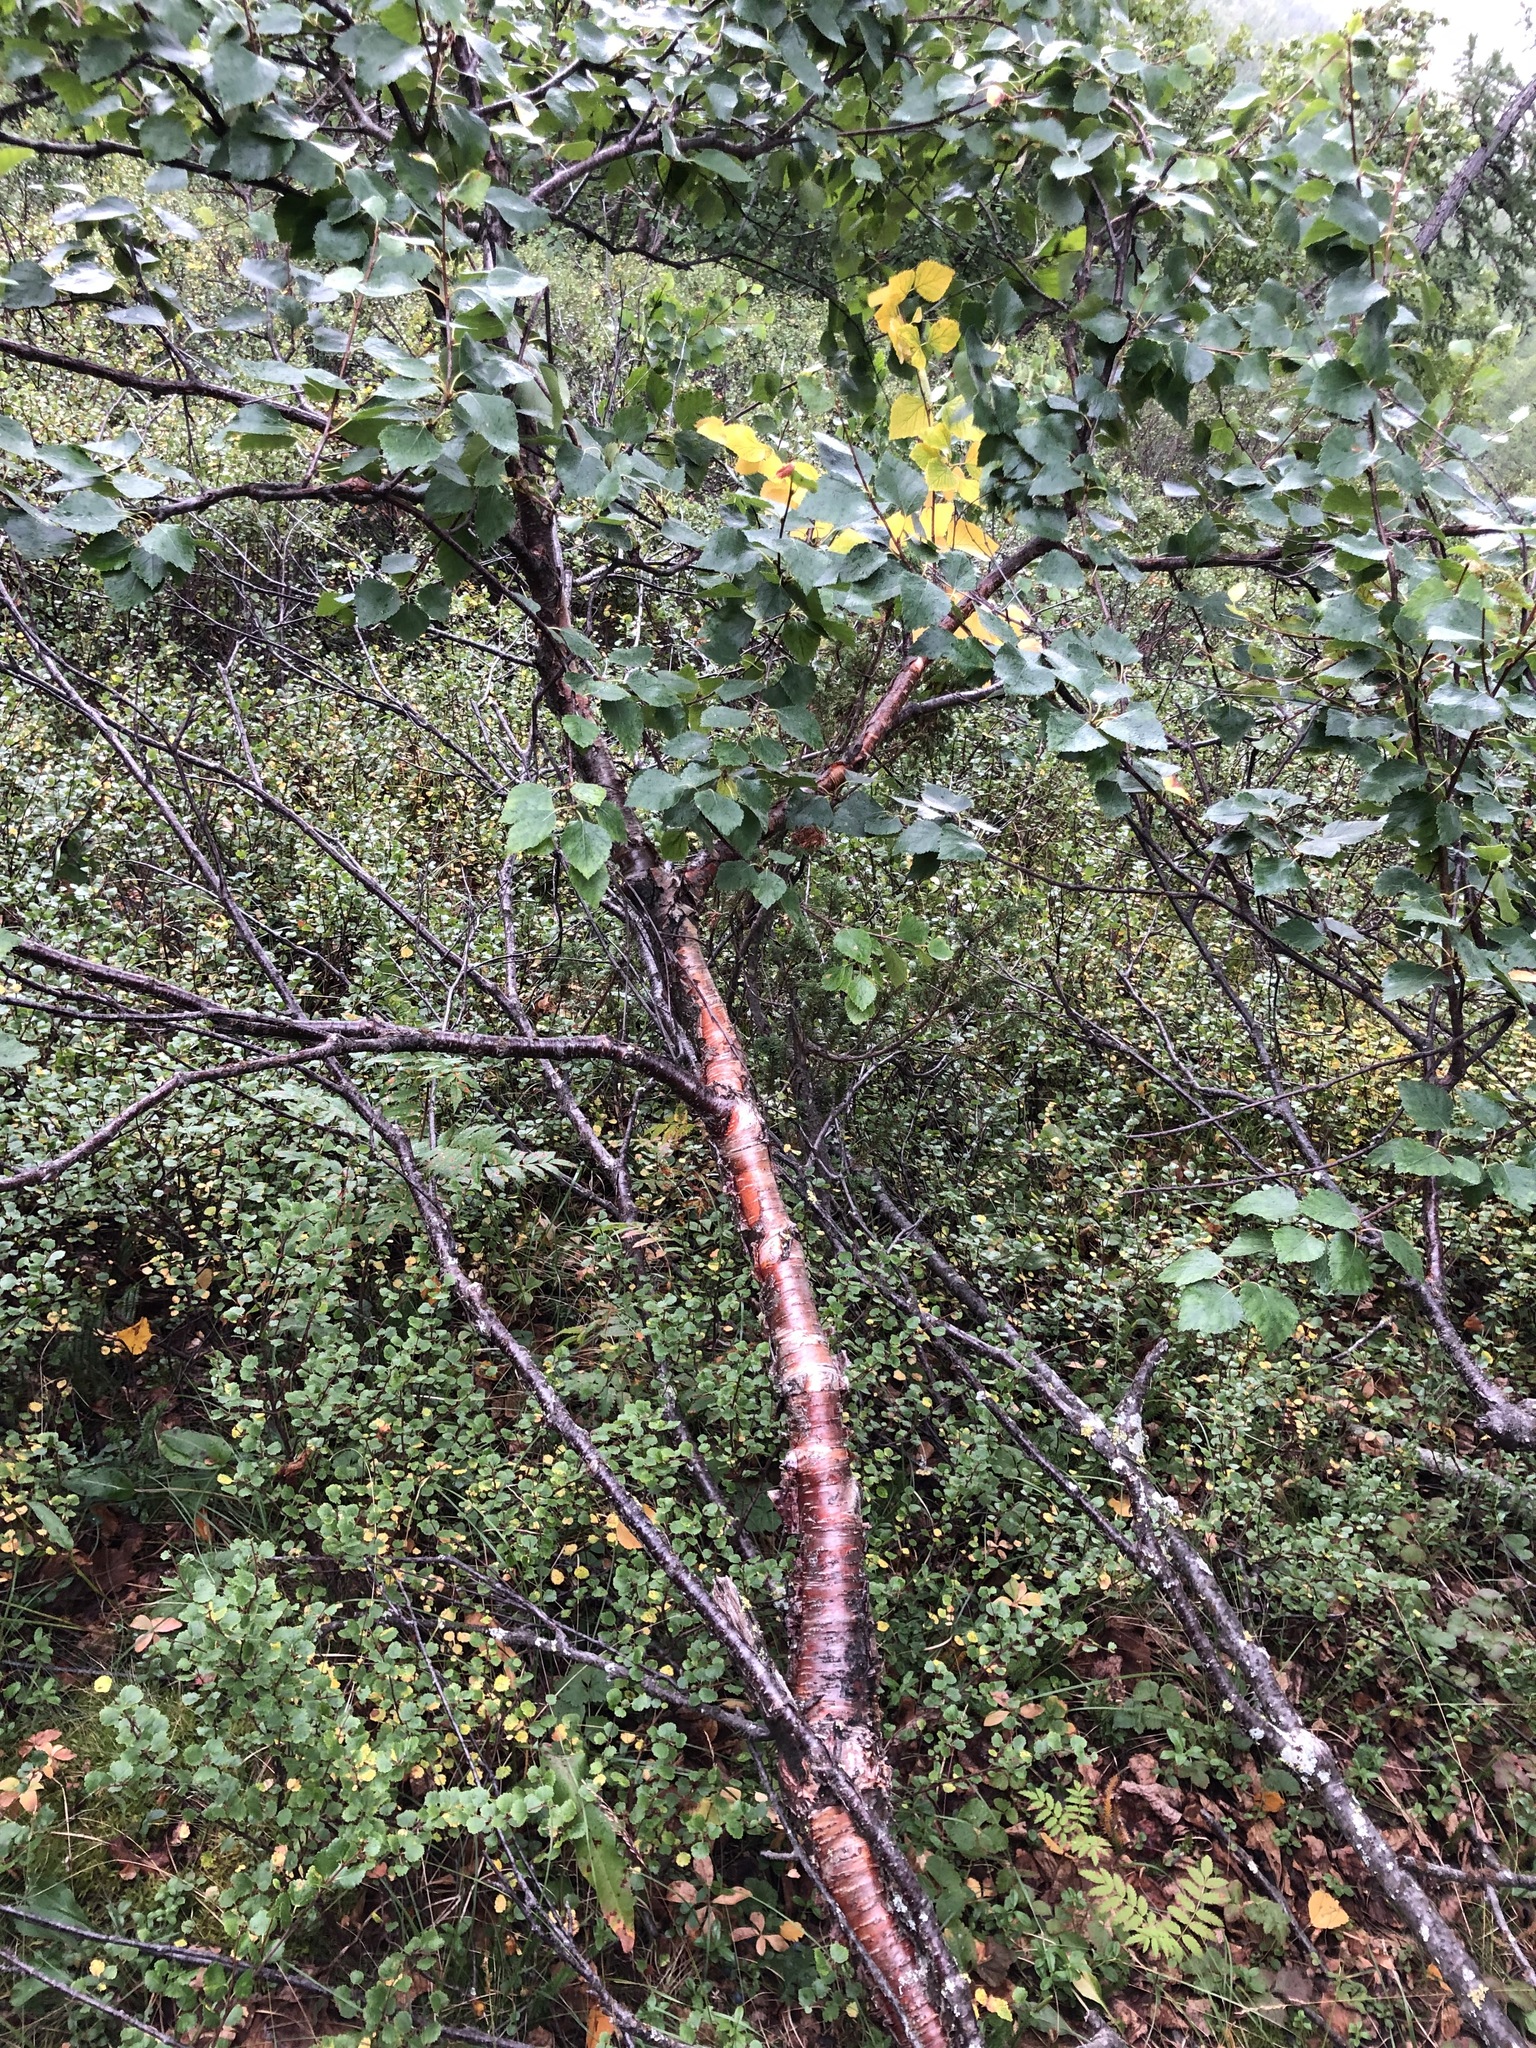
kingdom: Plantae
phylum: Tracheophyta
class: Magnoliopsida
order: Fagales
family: Betulaceae
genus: Betula
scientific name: Betula pubescens
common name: Downy birch
